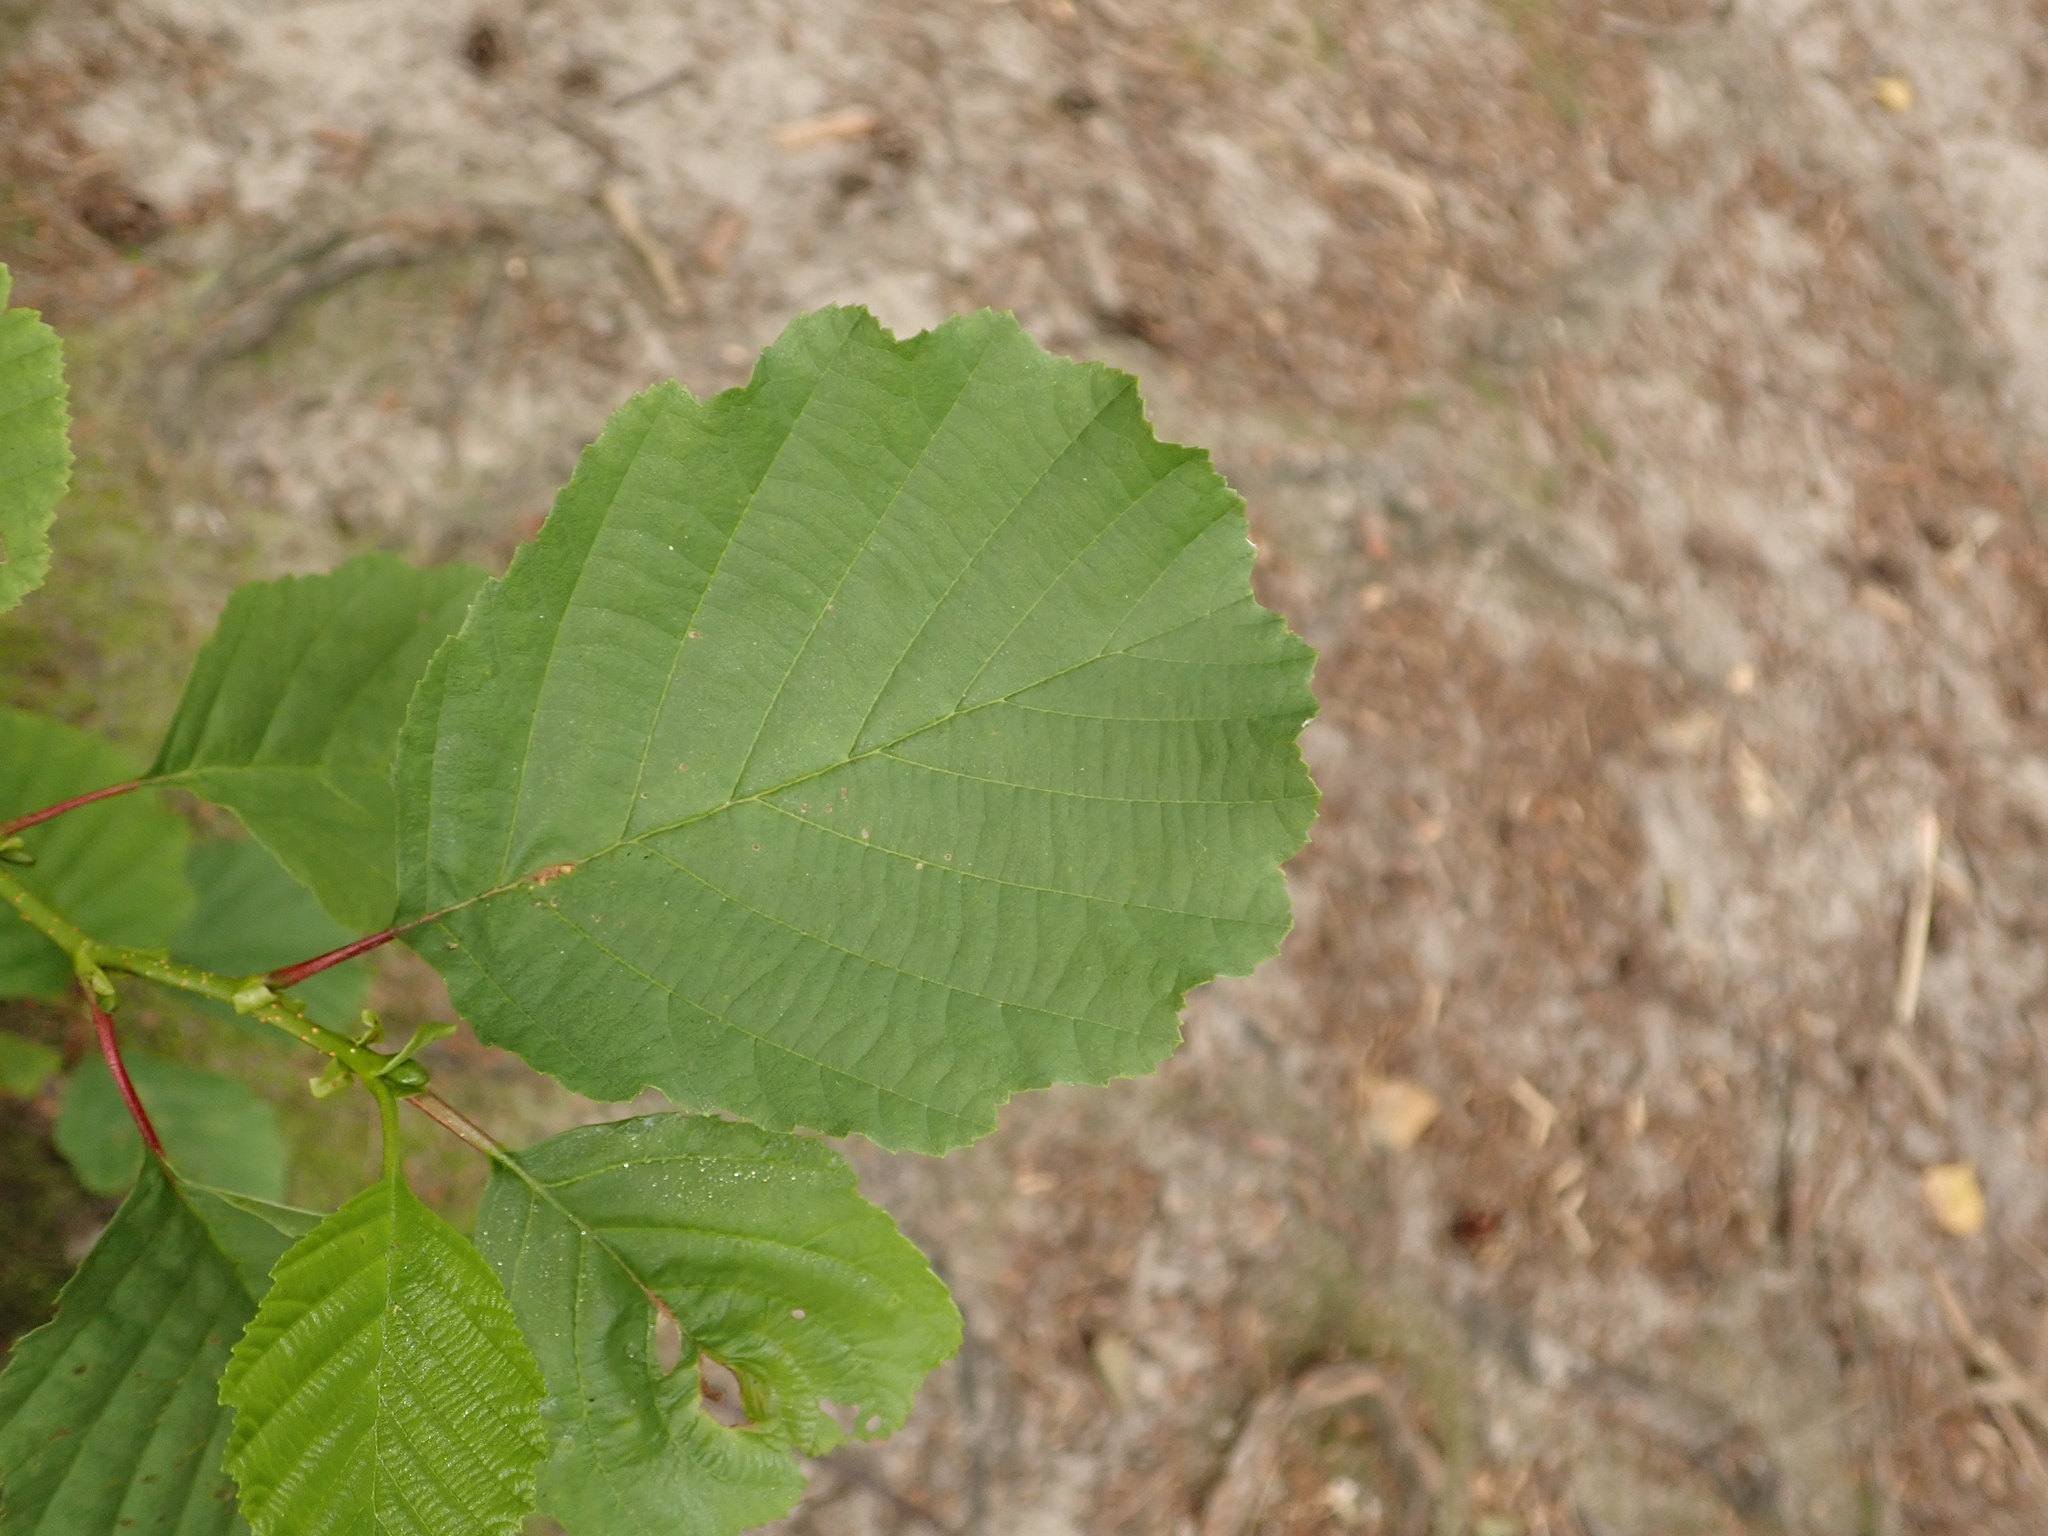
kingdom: Plantae
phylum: Tracheophyta
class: Magnoliopsida
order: Fagales
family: Betulaceae
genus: Alnus
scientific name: Alnus glutinosa
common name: Black alder
